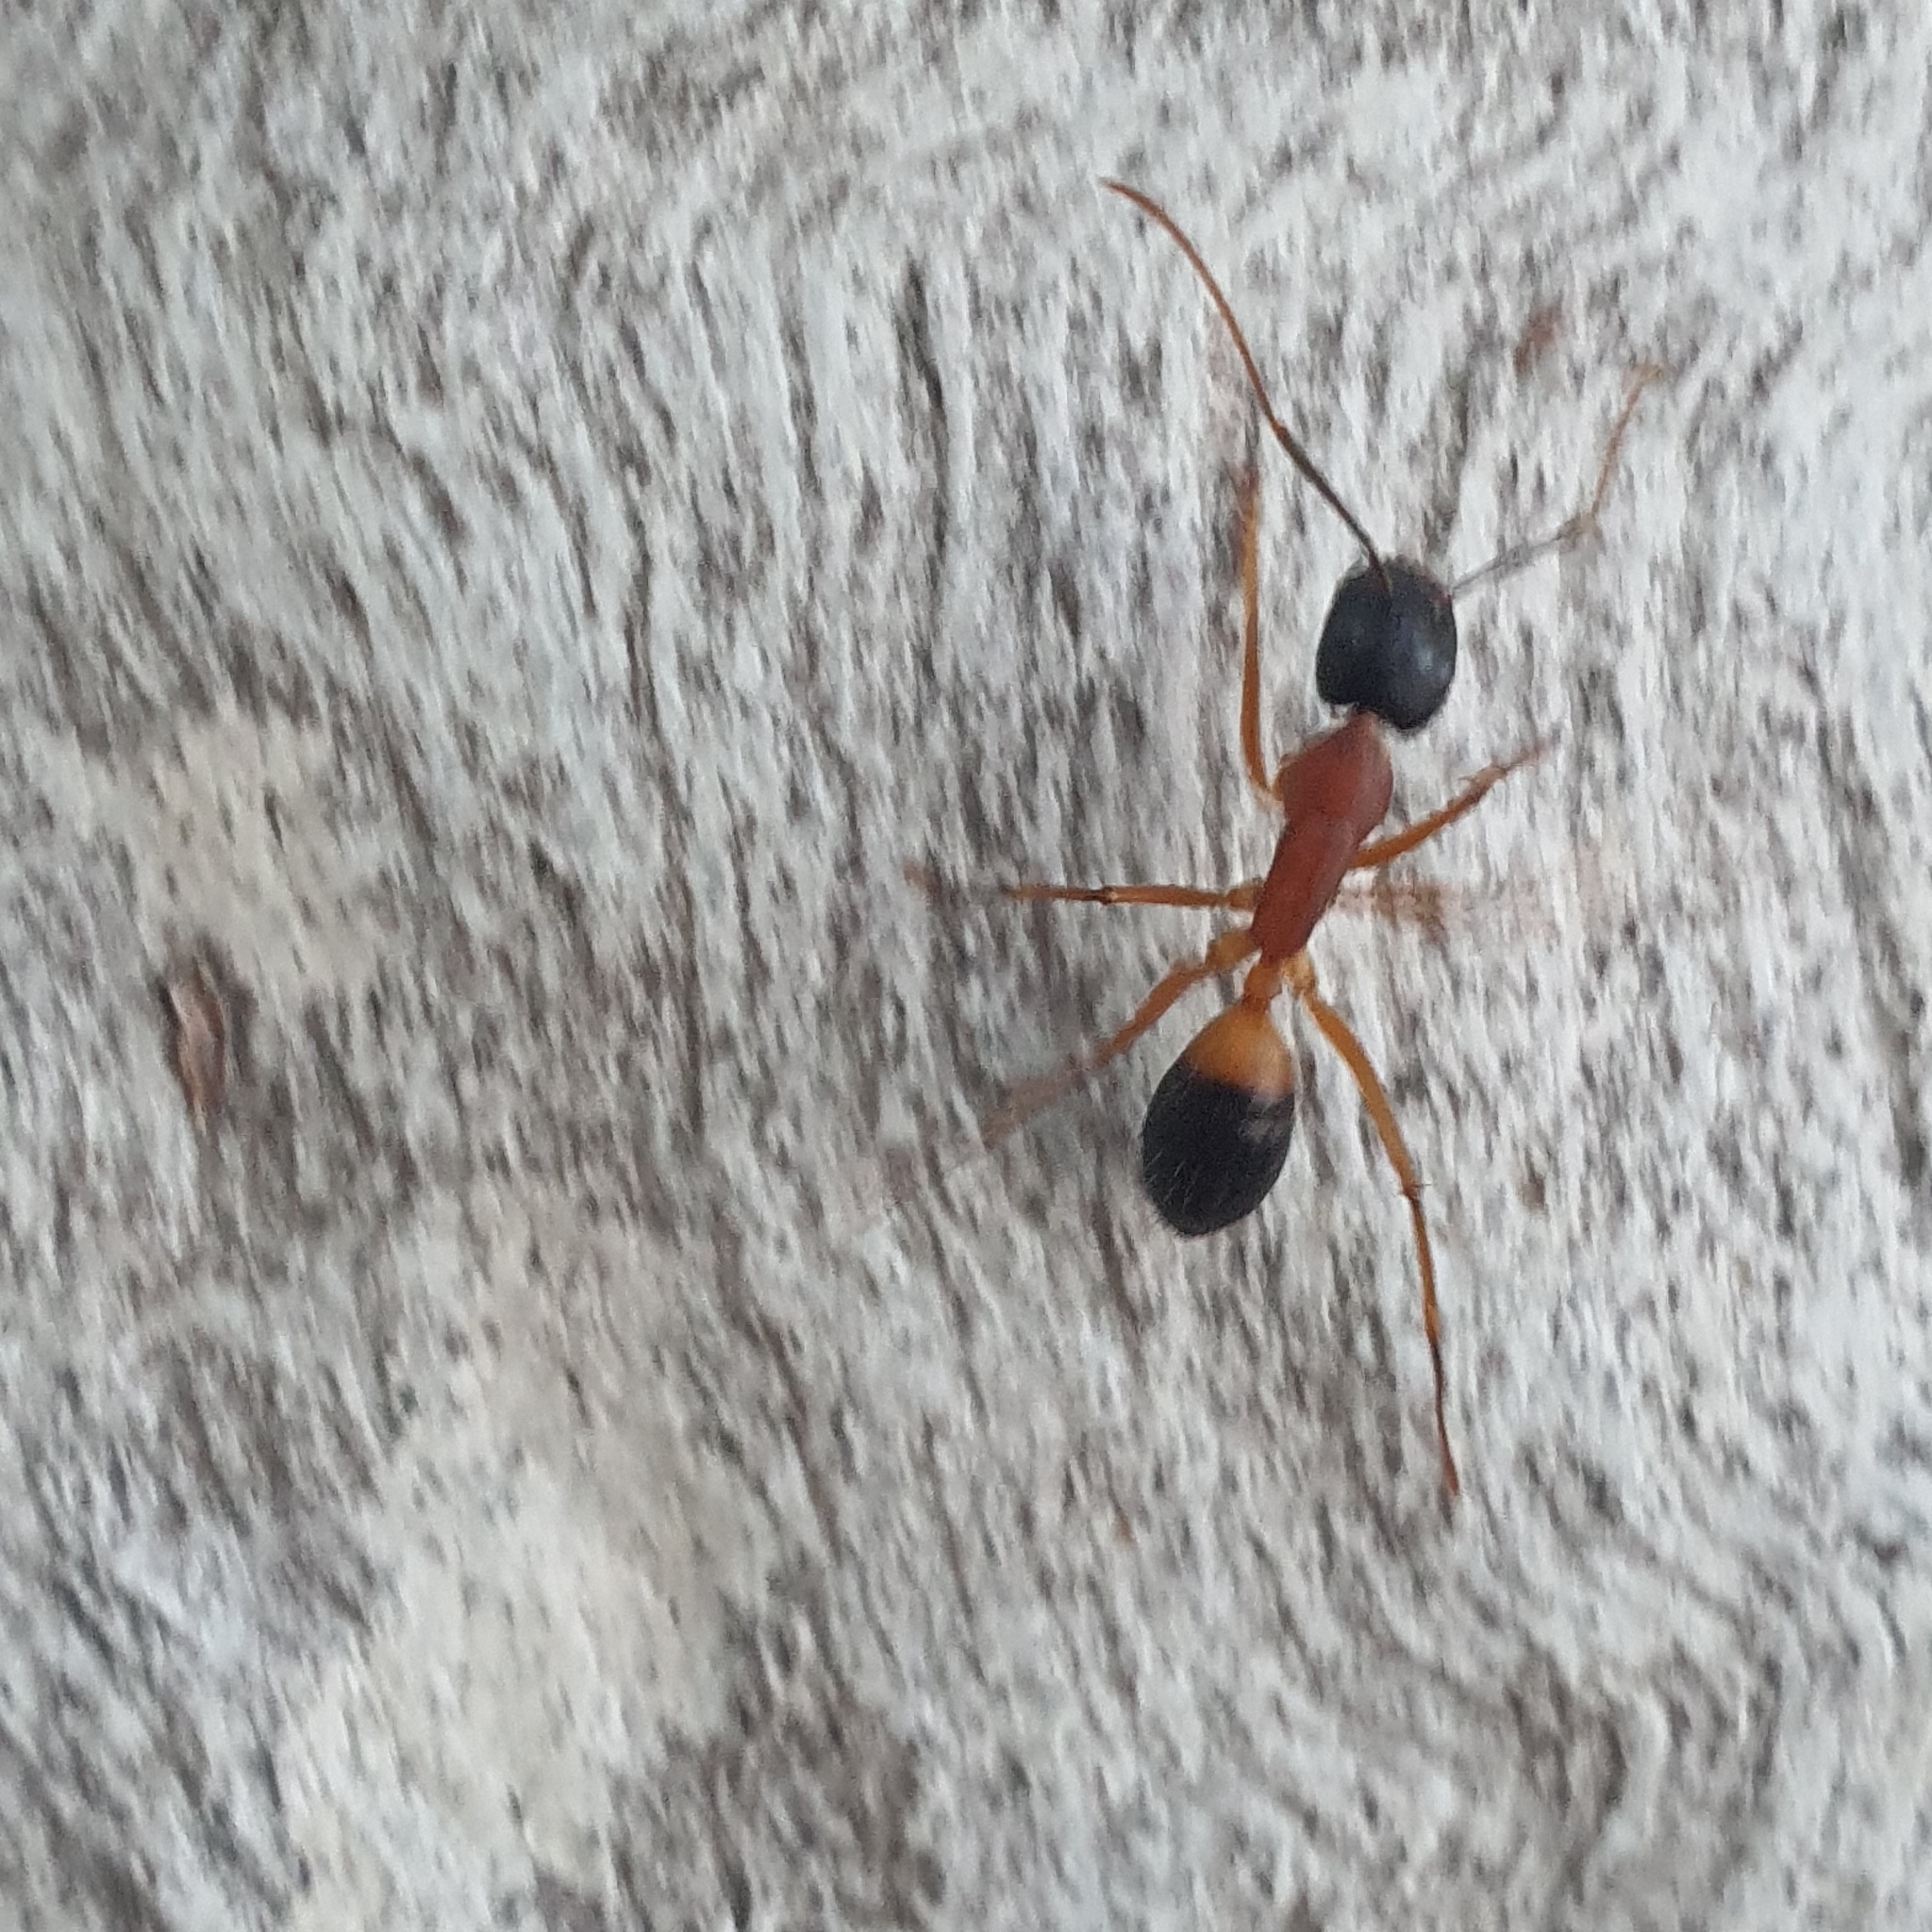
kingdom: Animalia
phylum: Arthropoda
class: Insecta
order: Hymenoptera
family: Formicidae
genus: Camponotus
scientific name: Camponotus consobrinus
